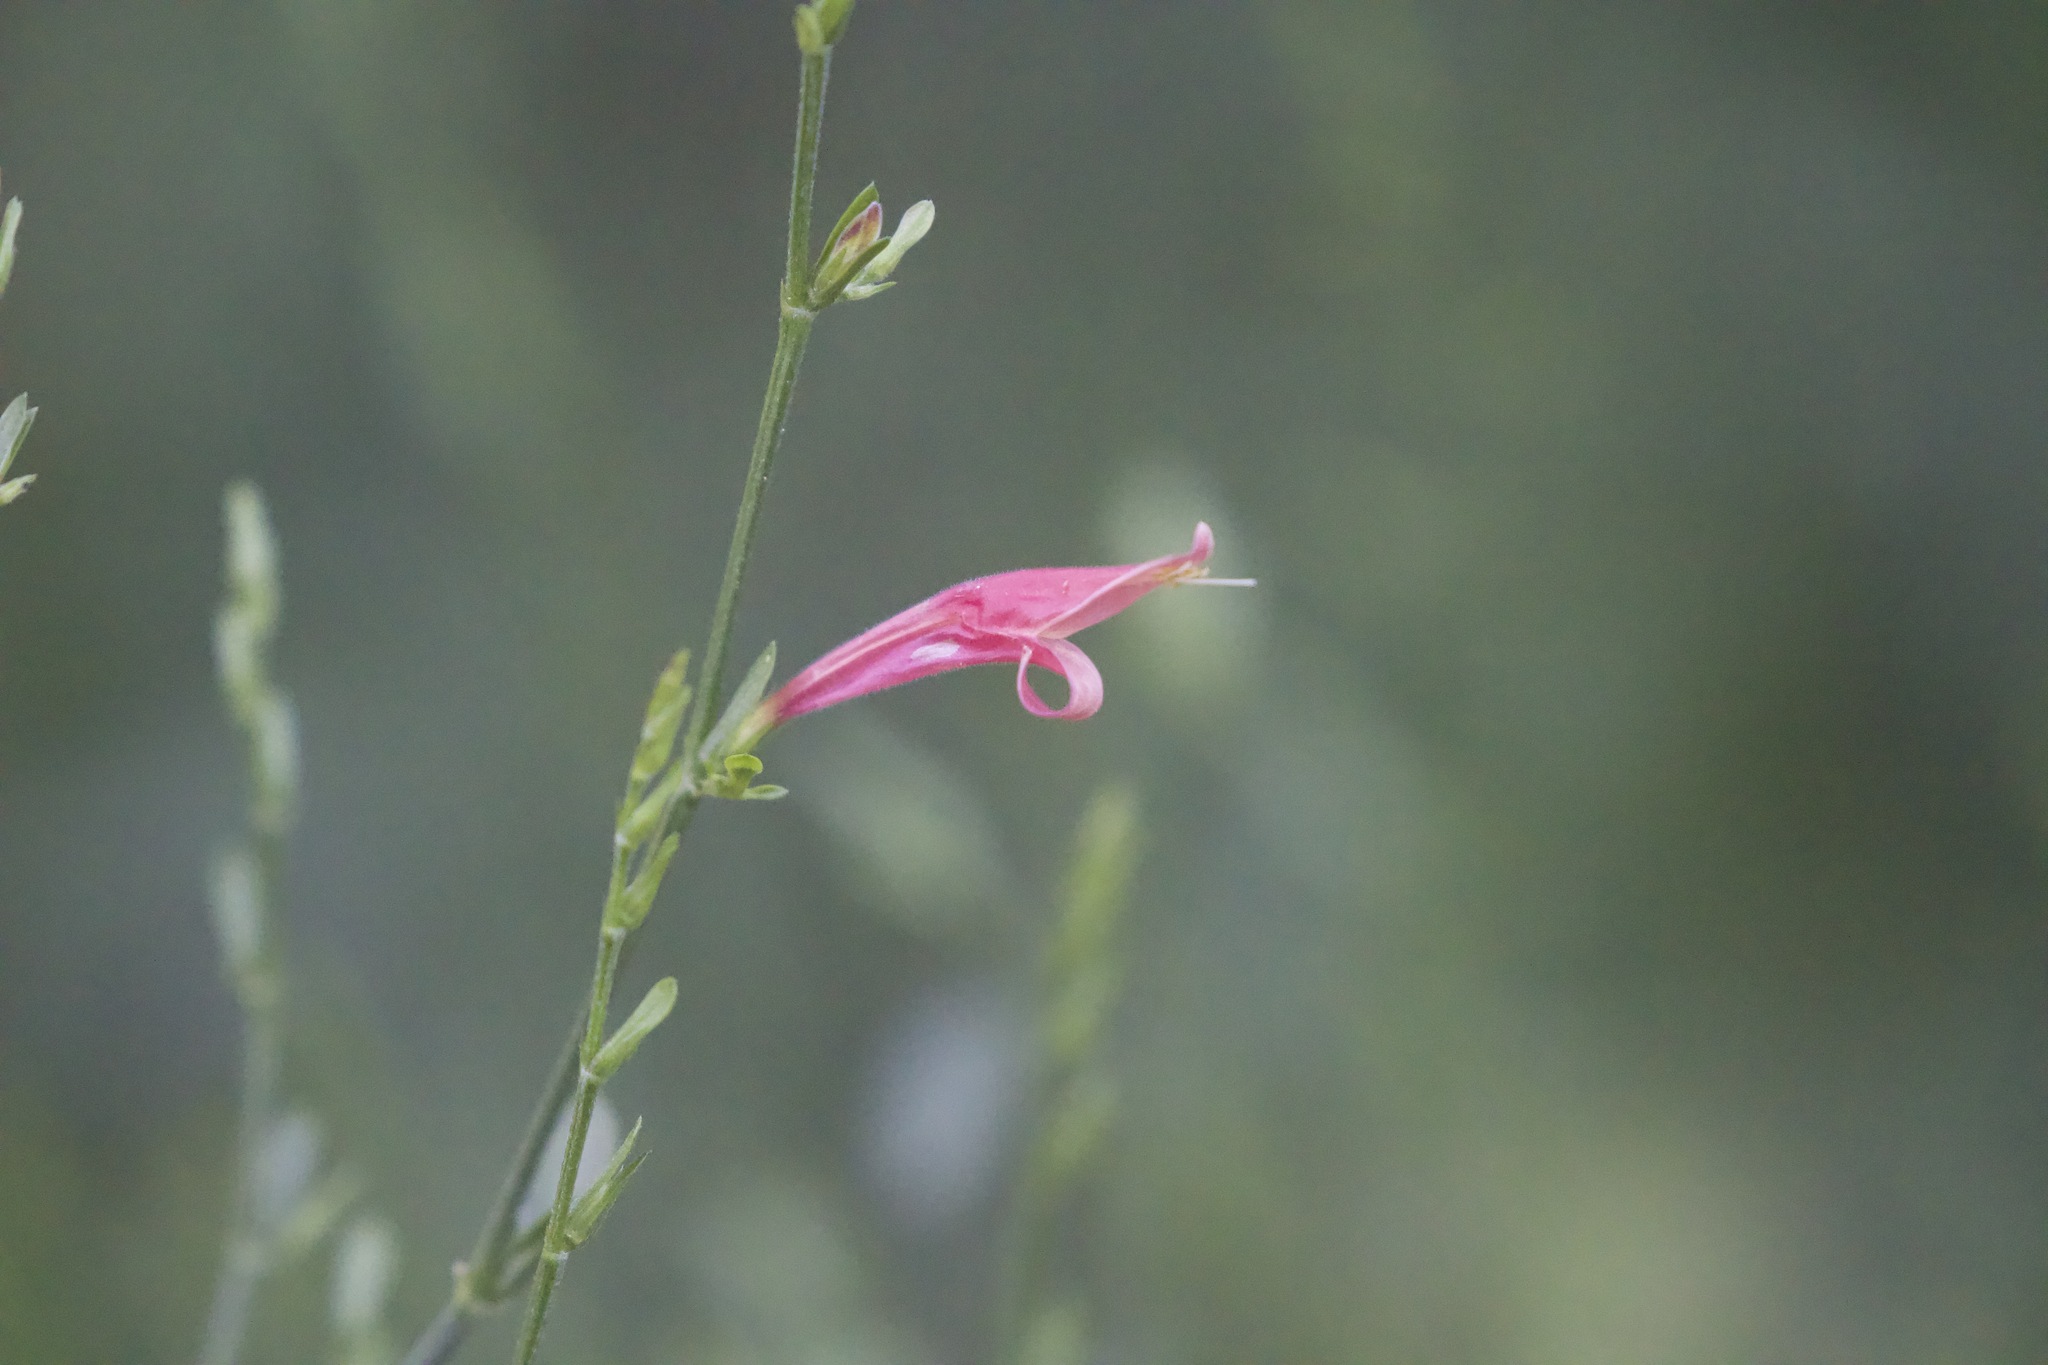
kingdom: Plantae
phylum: Tracheophyta
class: Magnoliopsida
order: Lamiales
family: Acanthaceae
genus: Dicliptera
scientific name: Dicliptera sexangularis
